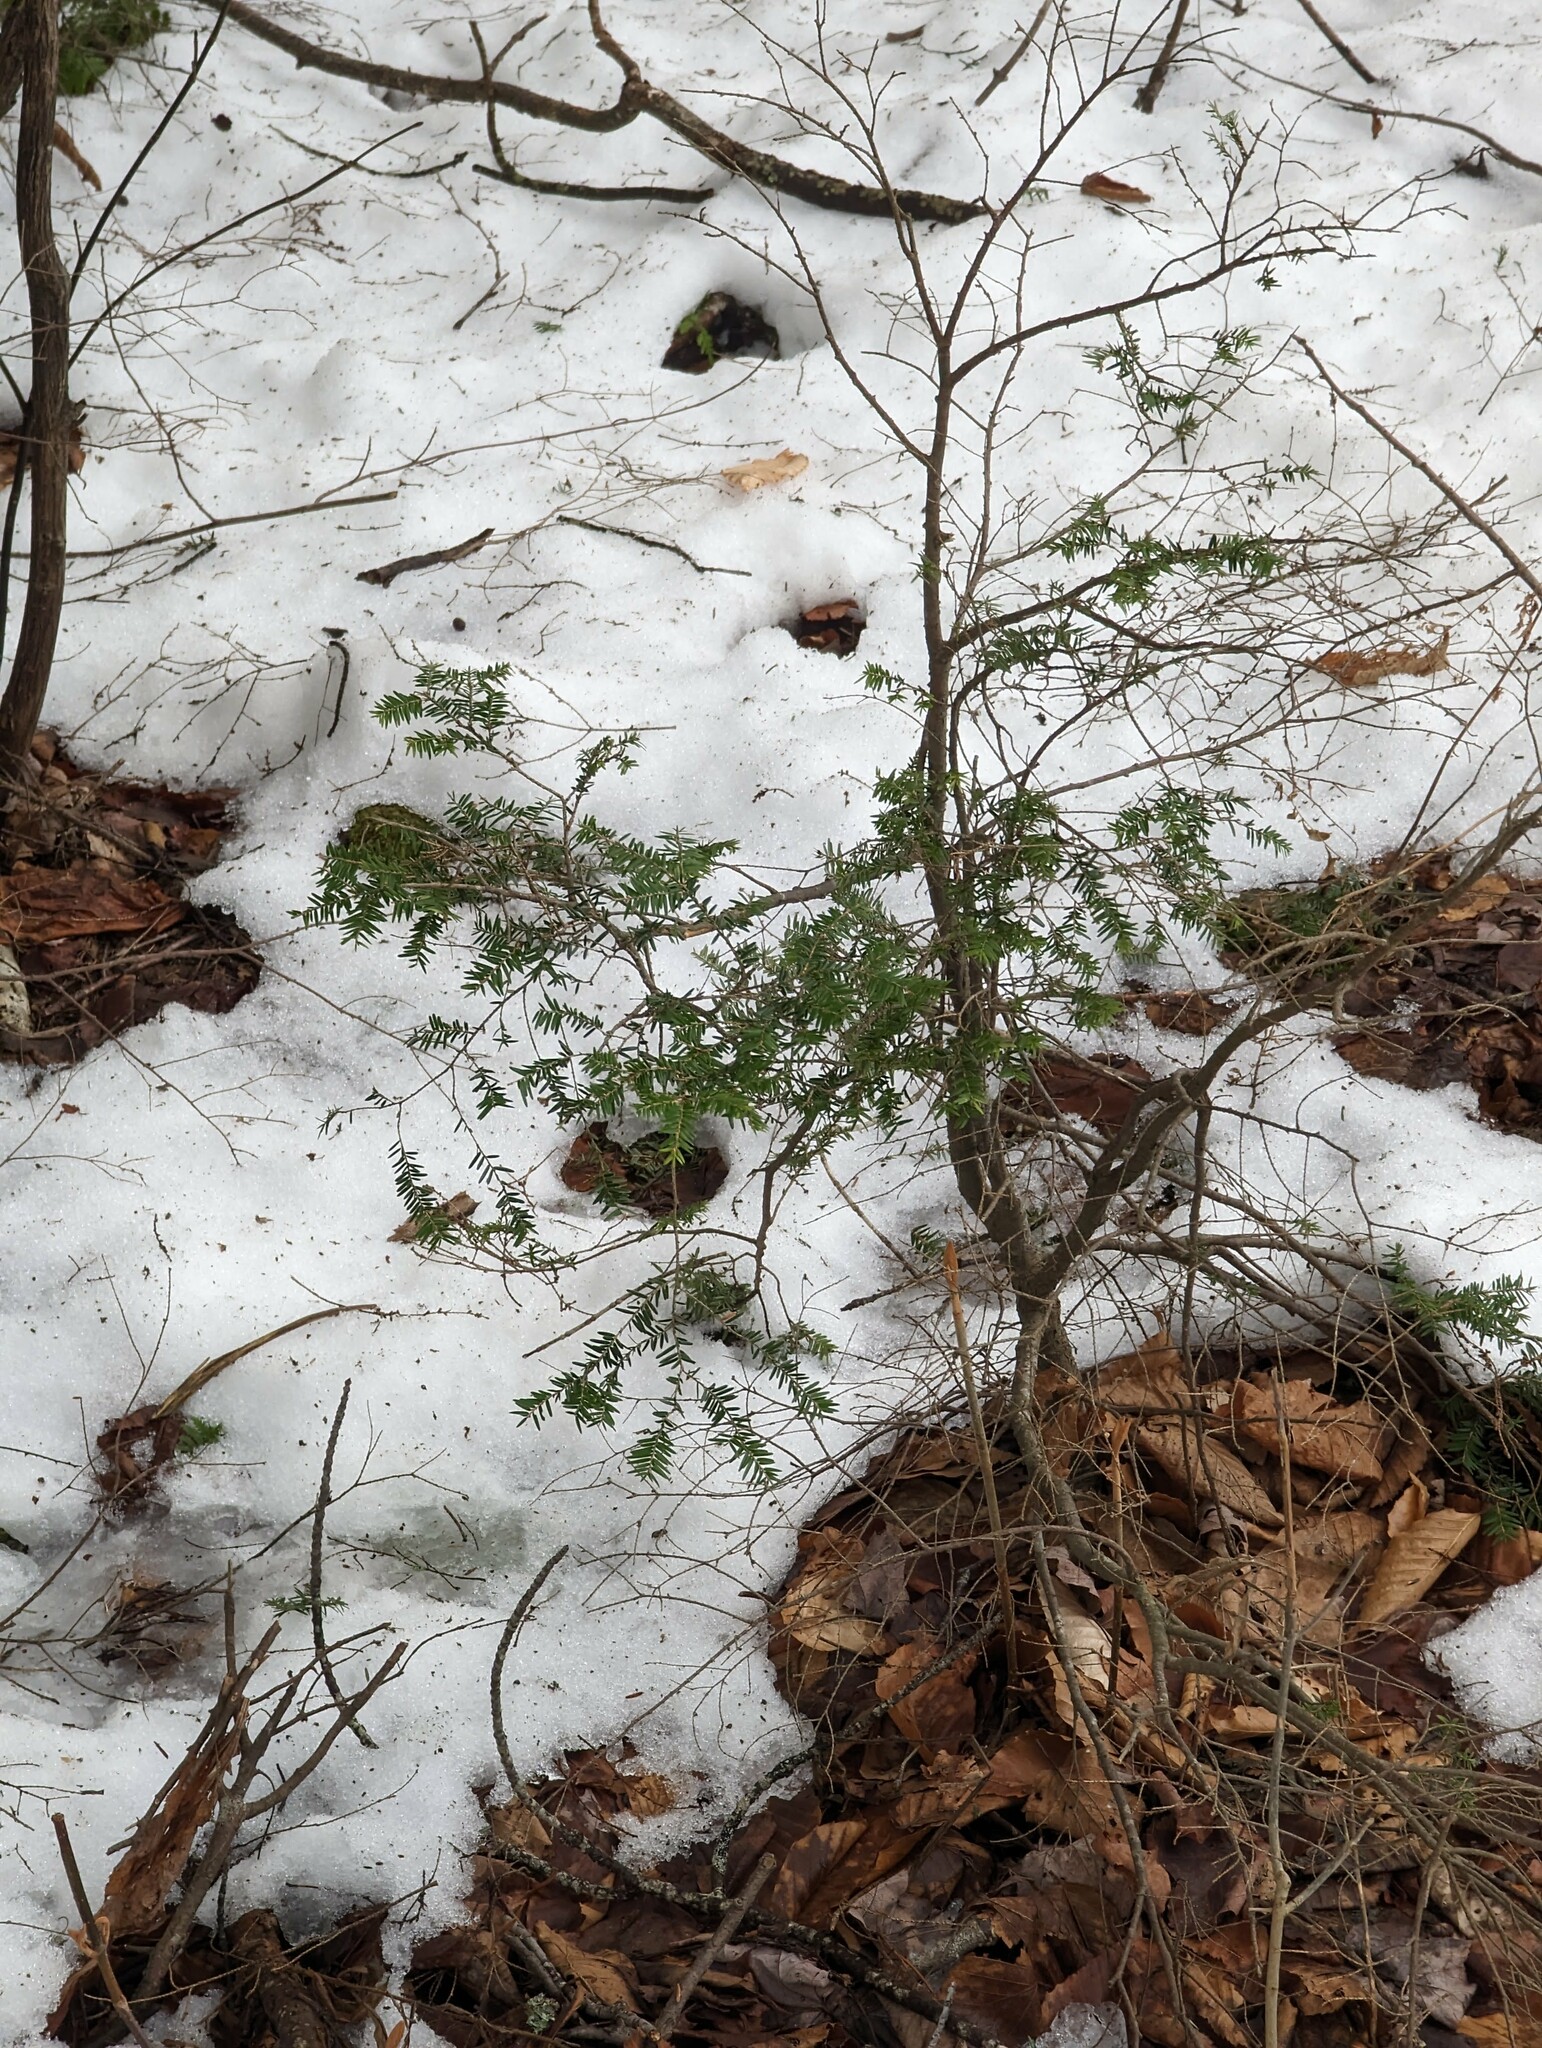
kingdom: Plantae
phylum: Tracheophyta
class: Pinopsida
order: Pinales
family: Pinaceae
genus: Tsuga
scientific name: Tsuga canadensis
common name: Eastern hemlock
